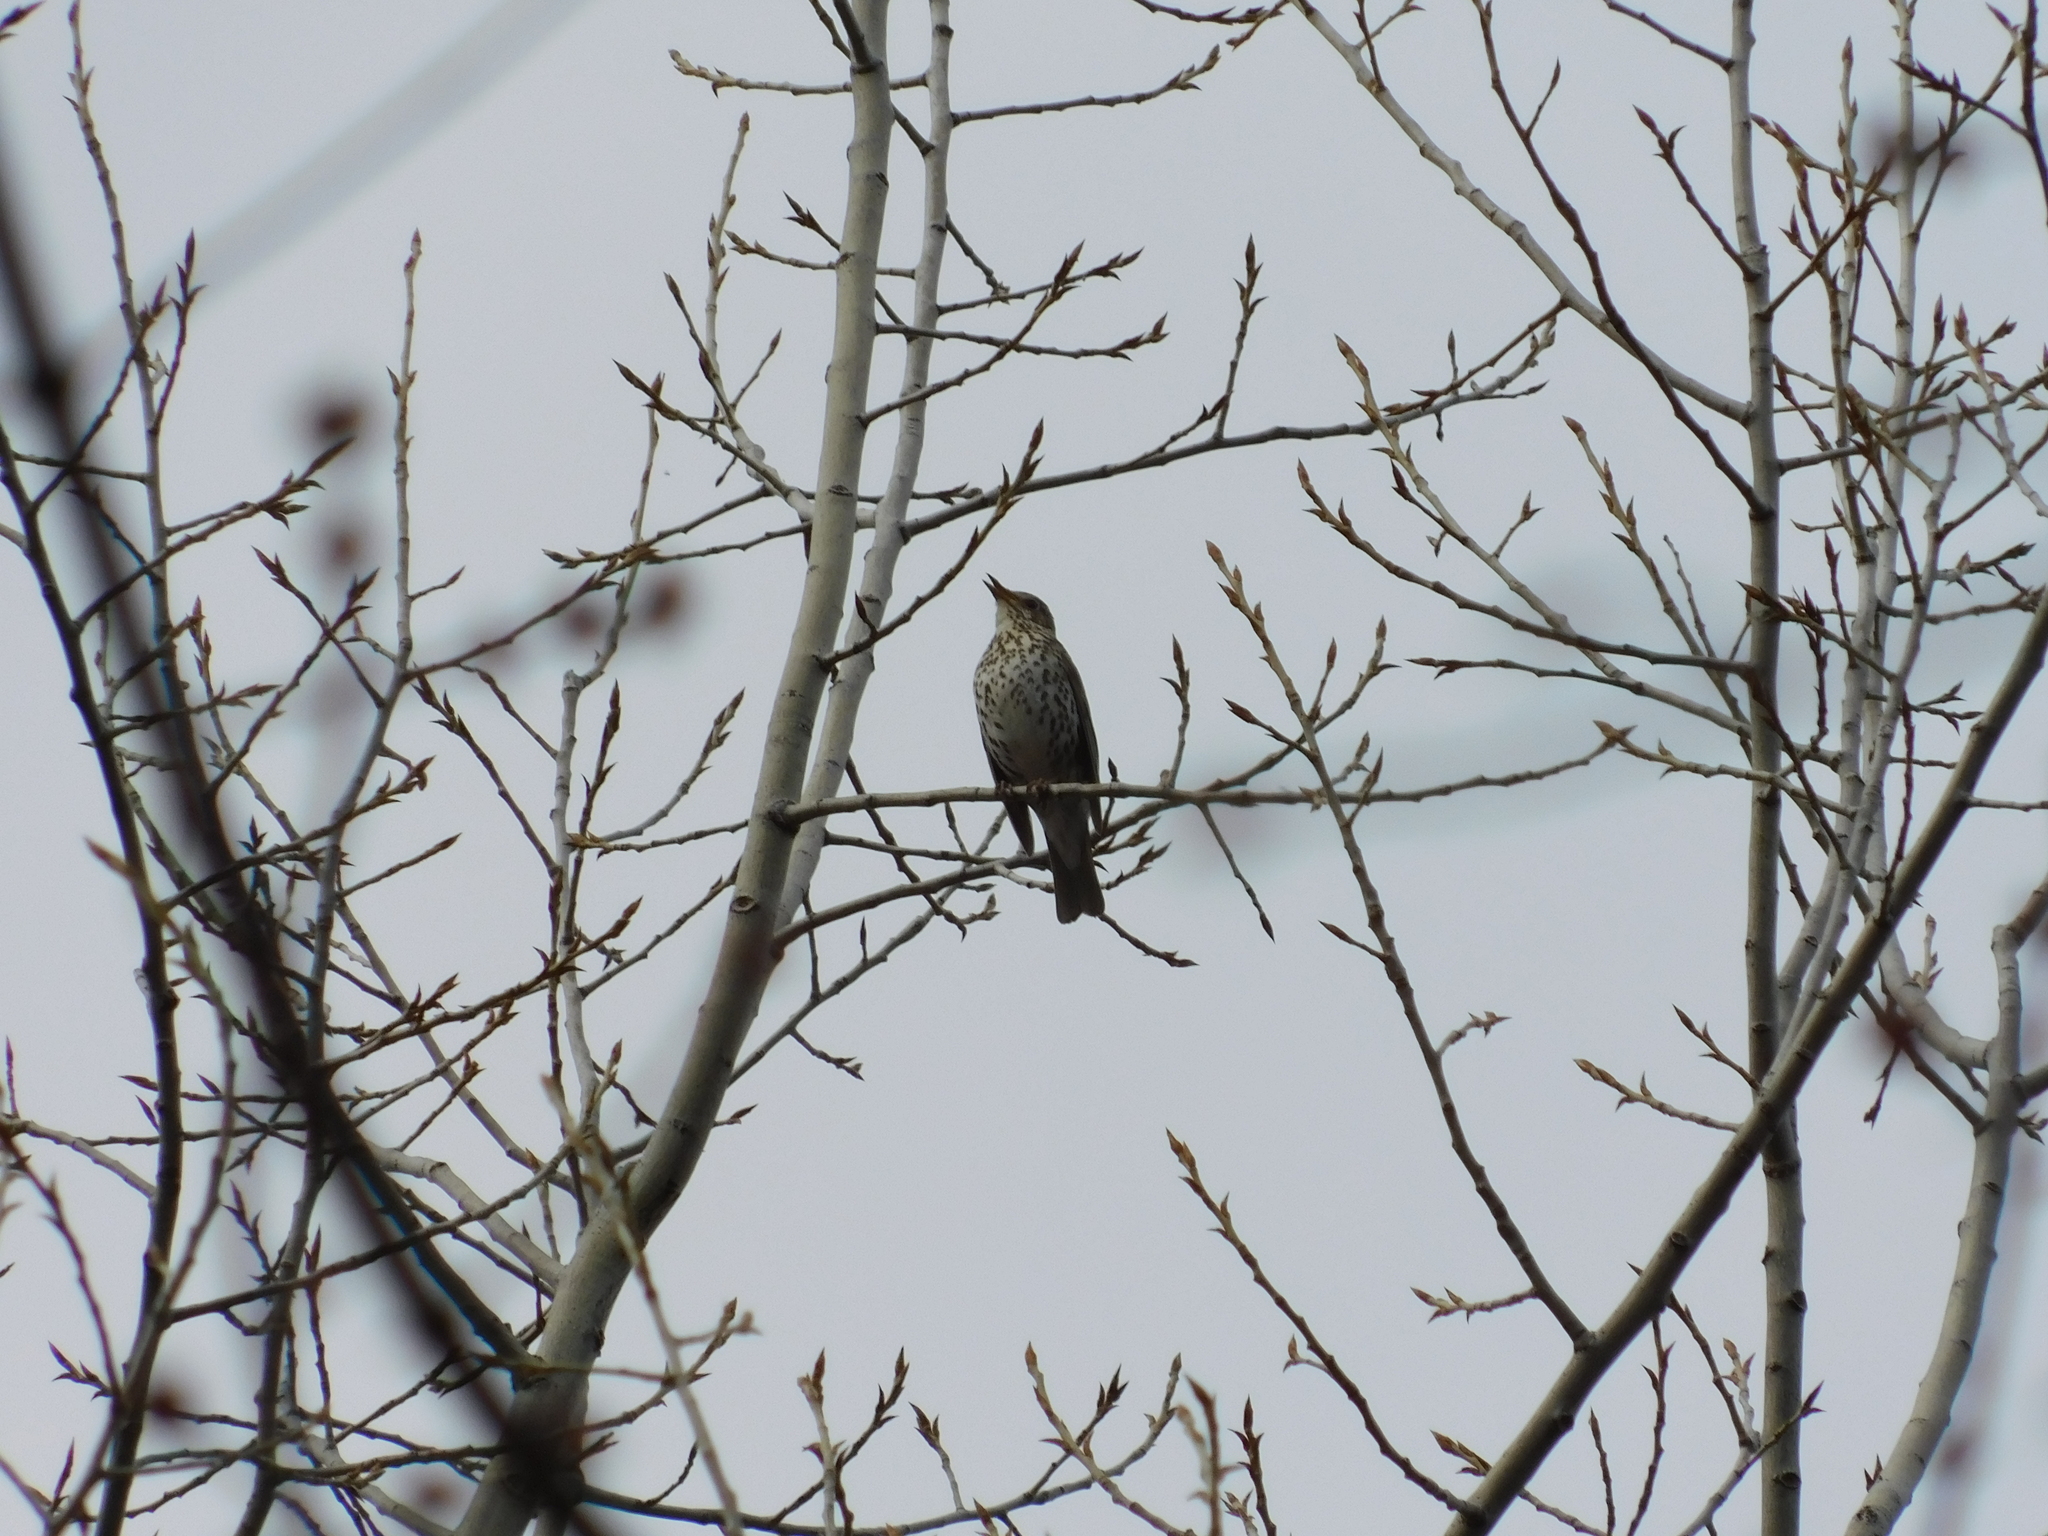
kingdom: Animalia
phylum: Chordata
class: Aves
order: Passeriformes
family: Turdidae
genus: Turdus
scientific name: Turdus philomelos
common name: Song thrush
